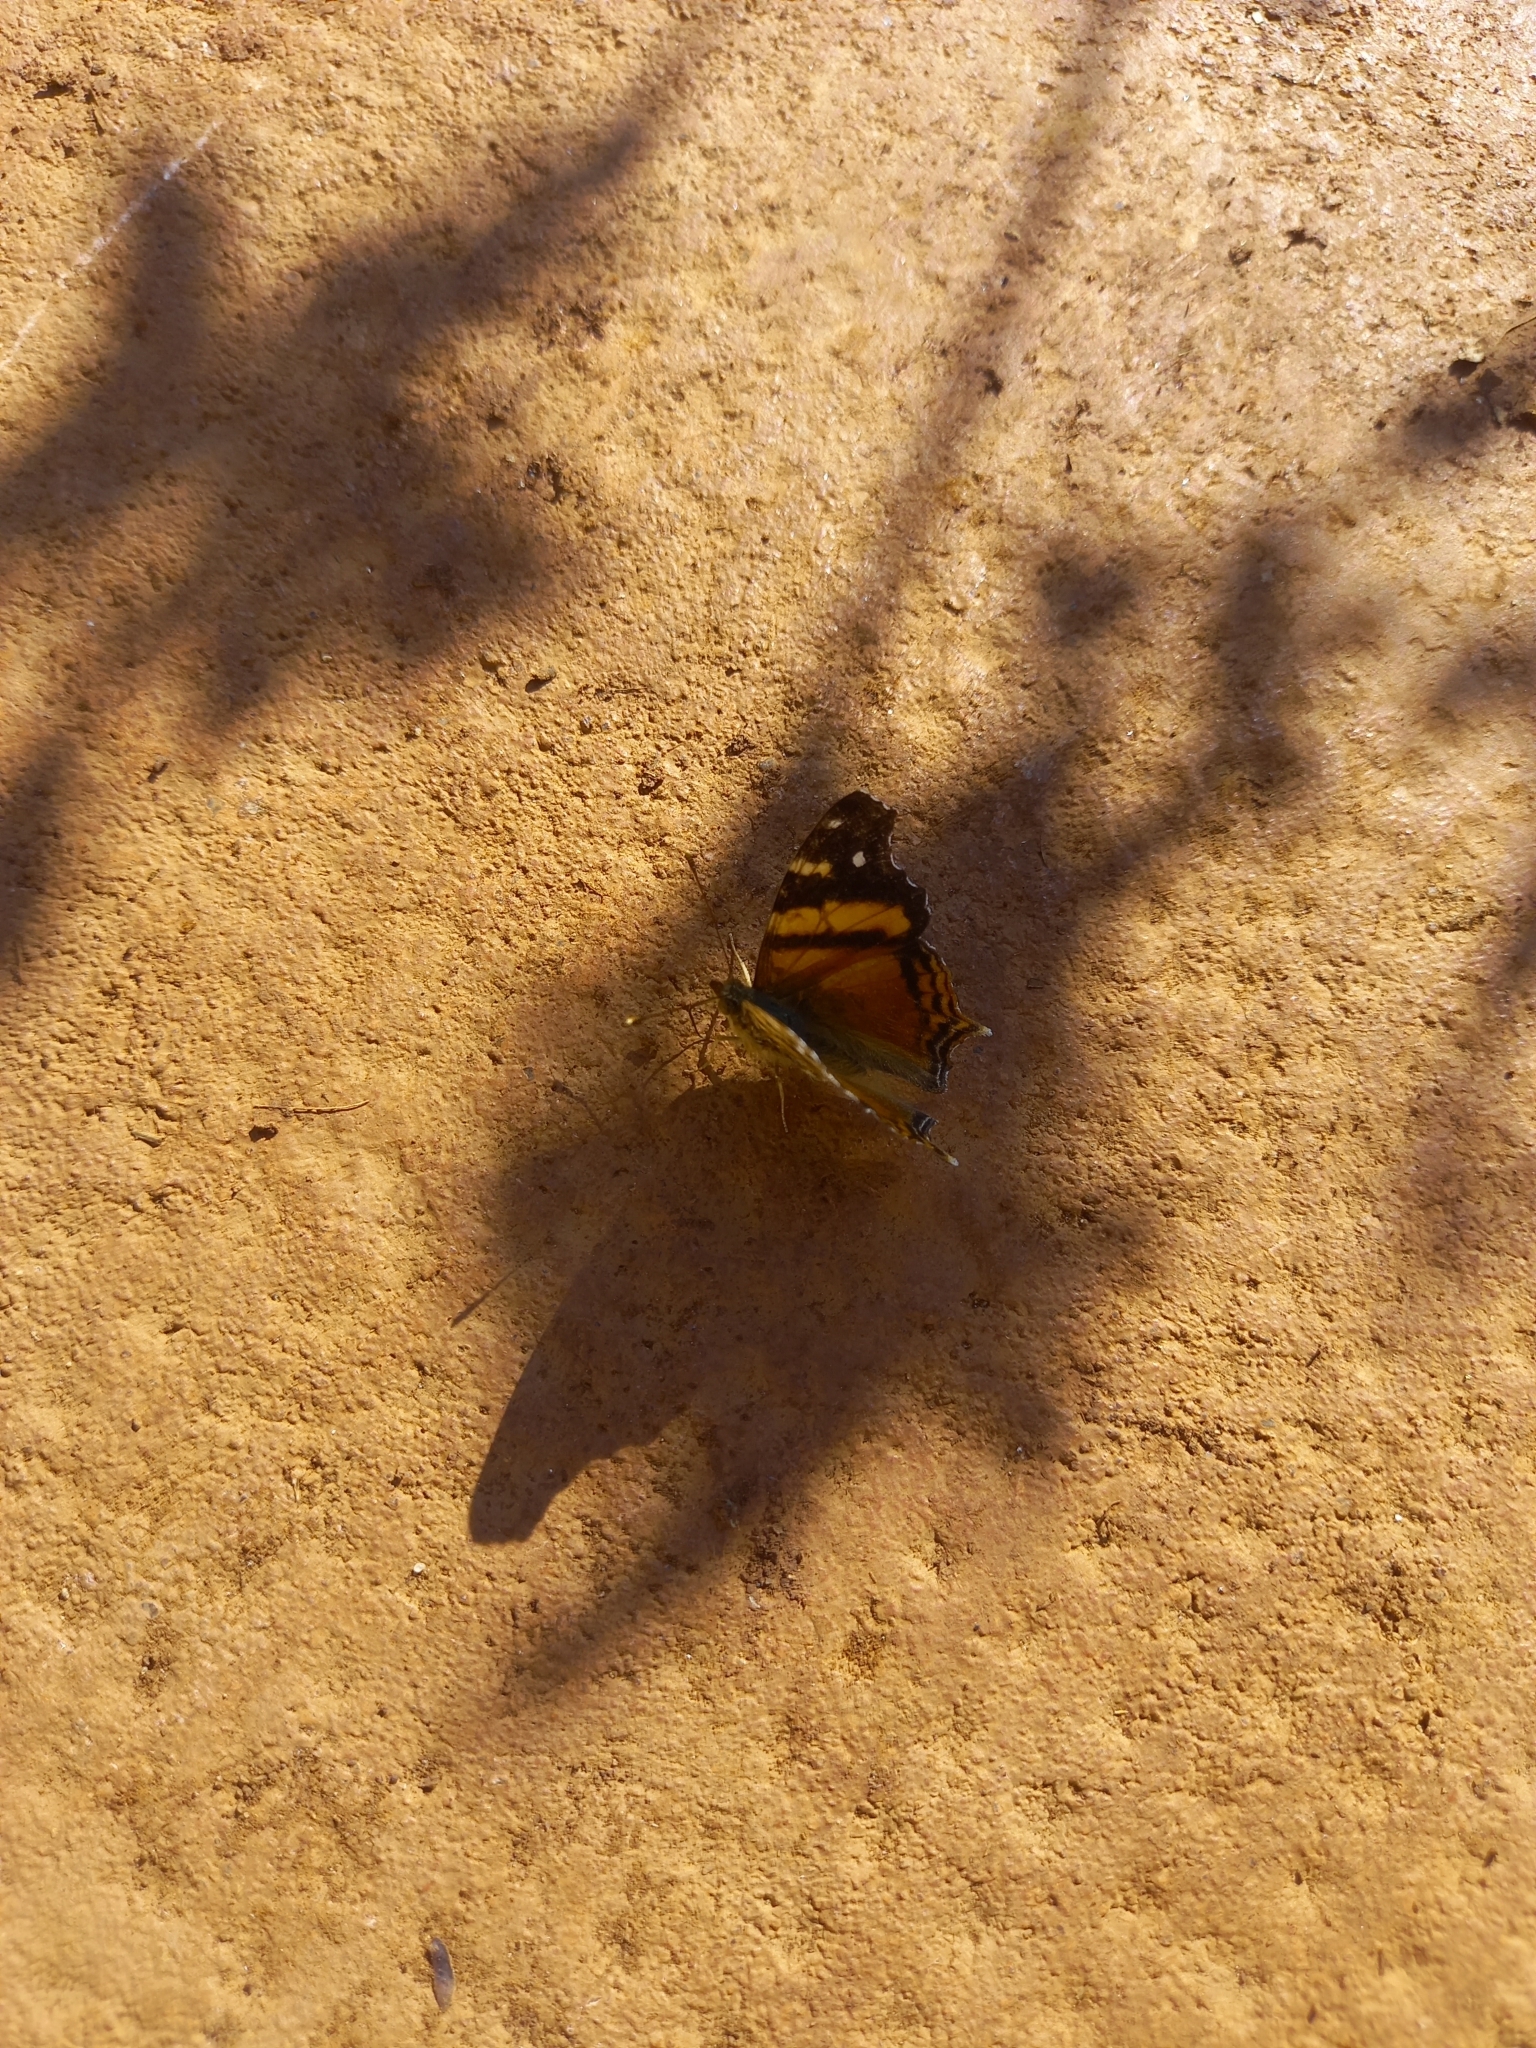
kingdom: Animalia
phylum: Arthropoda
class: Insecta
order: Lepidoptera
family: Nymphalidae
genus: Hypanartia
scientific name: Hypanartia bella
